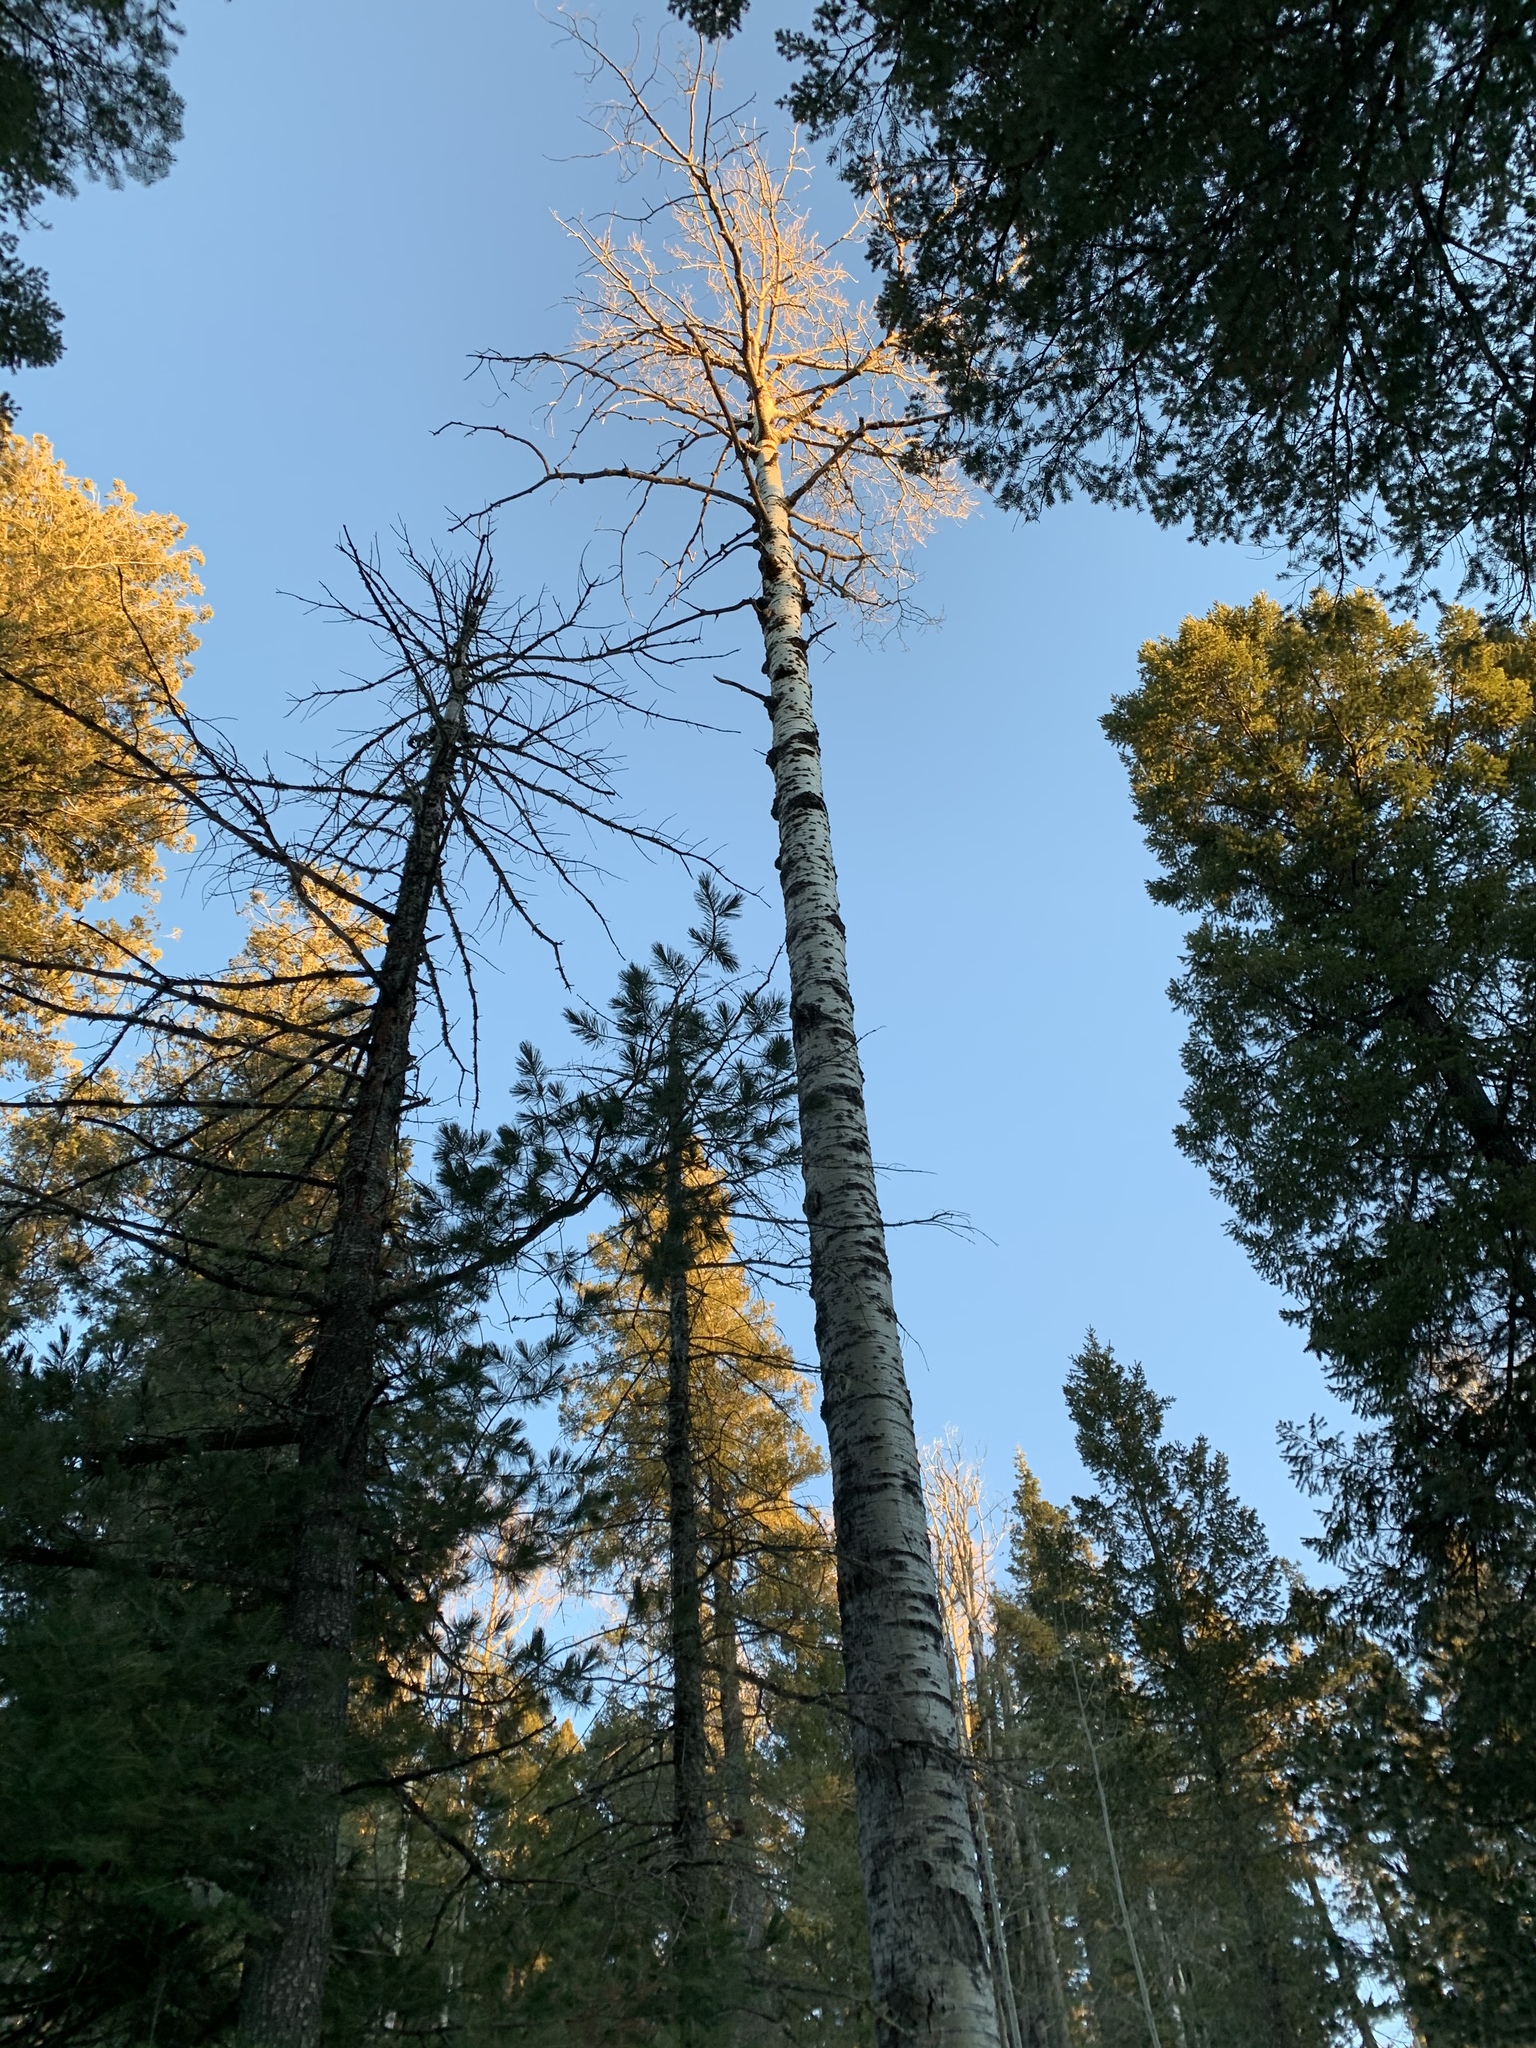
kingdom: Plantae
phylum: Tracheophyta
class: Magnoliopsida
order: Malpighiales
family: Salicaceae
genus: Populus
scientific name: Populus tremuloides
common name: Quaking aspen
